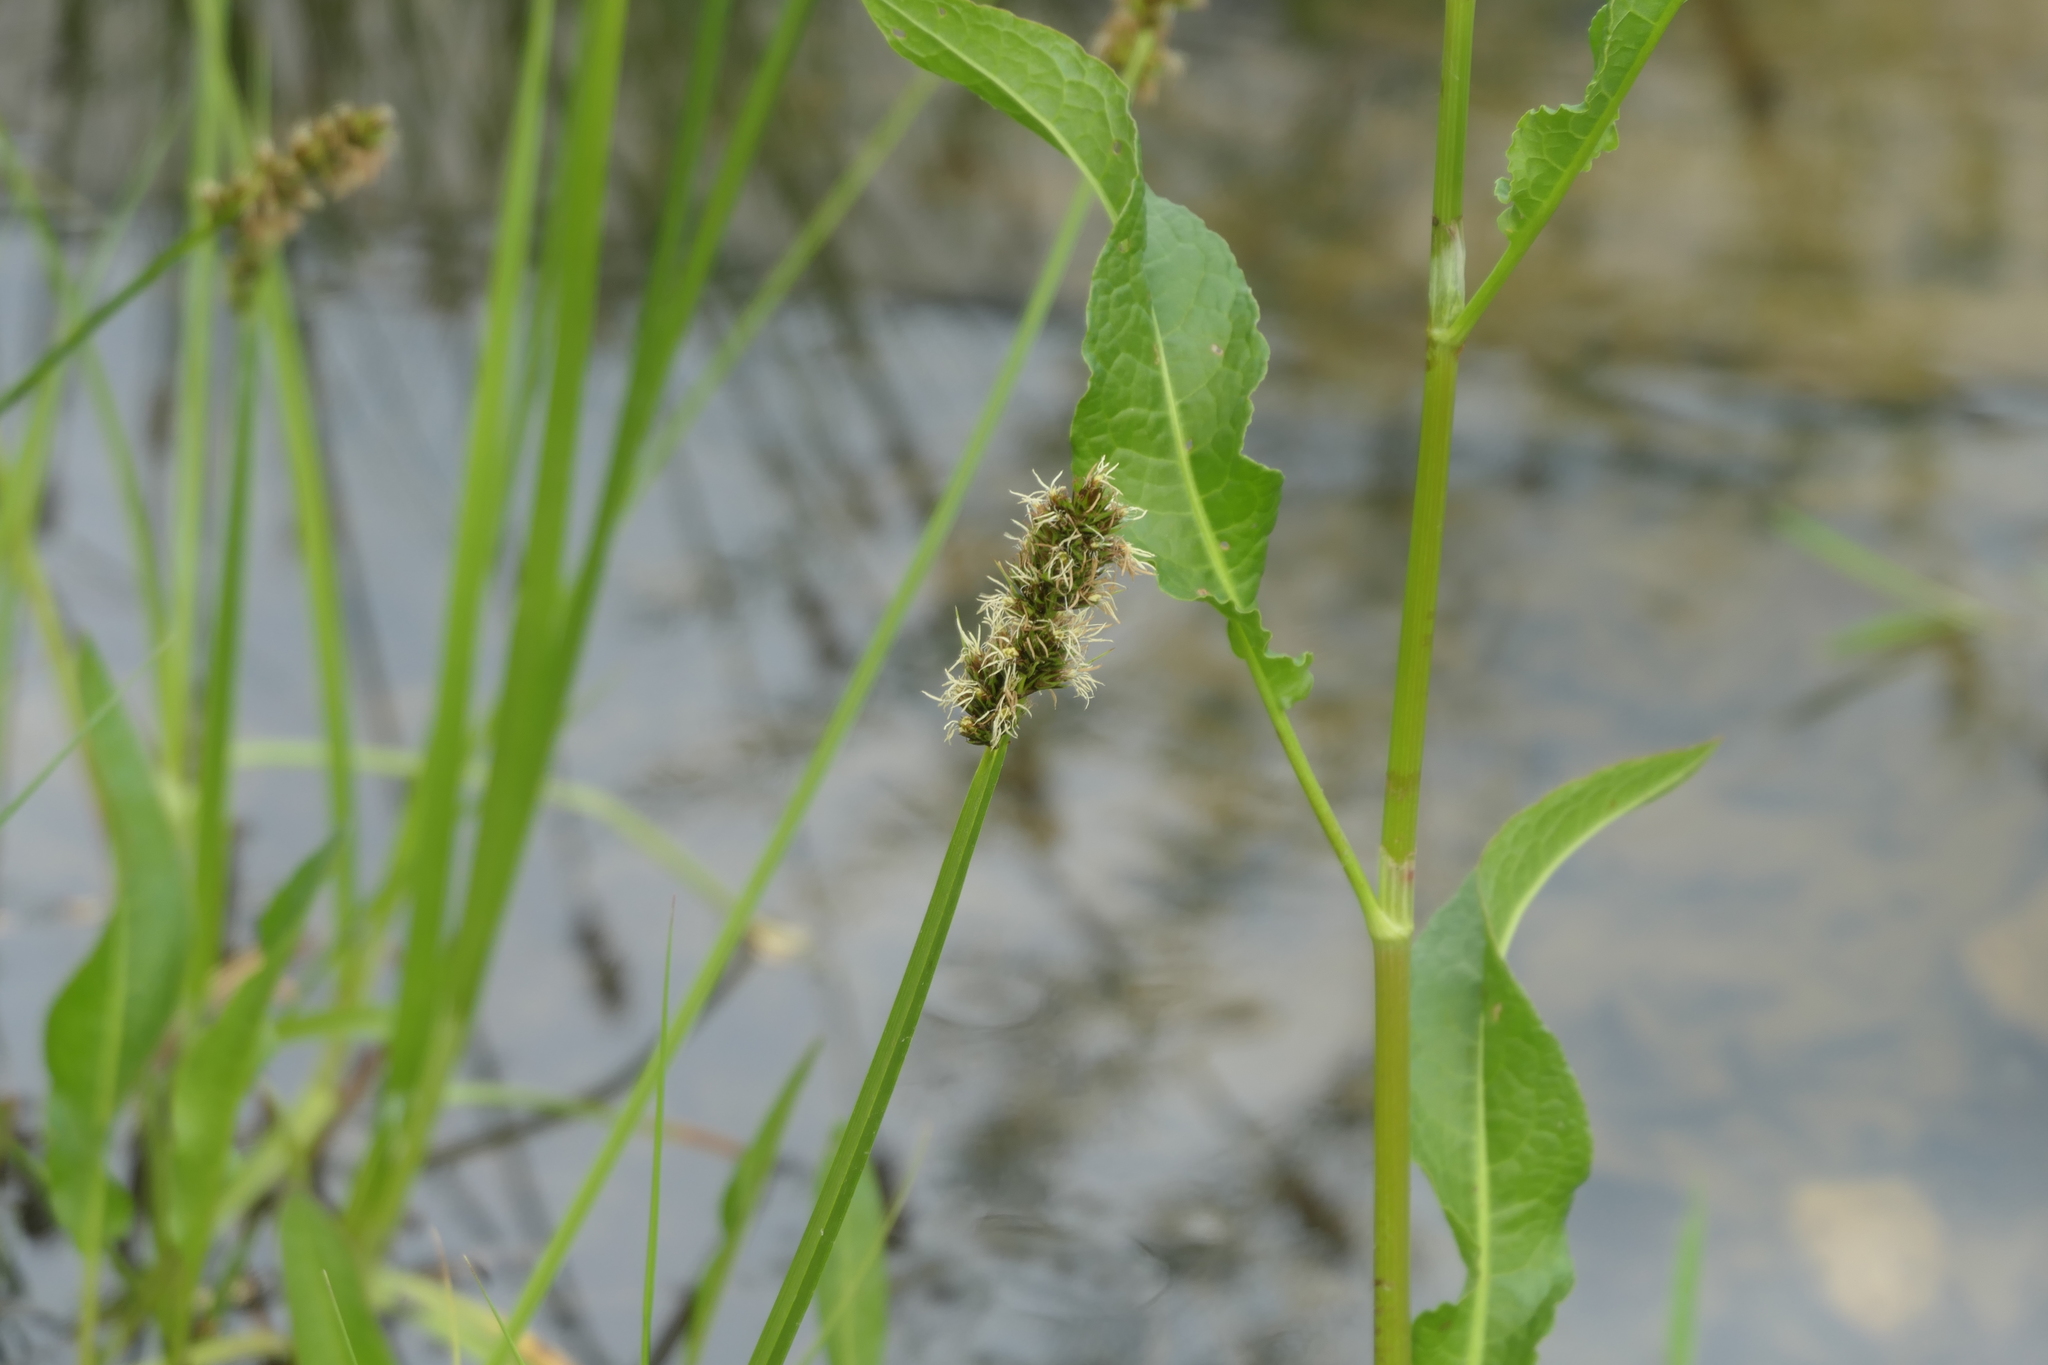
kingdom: Plantae
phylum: Tracheophyta
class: Liliopsida
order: Poales
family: Cyperaceae
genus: Carex
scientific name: Carex spicata
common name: Spiked sedge
